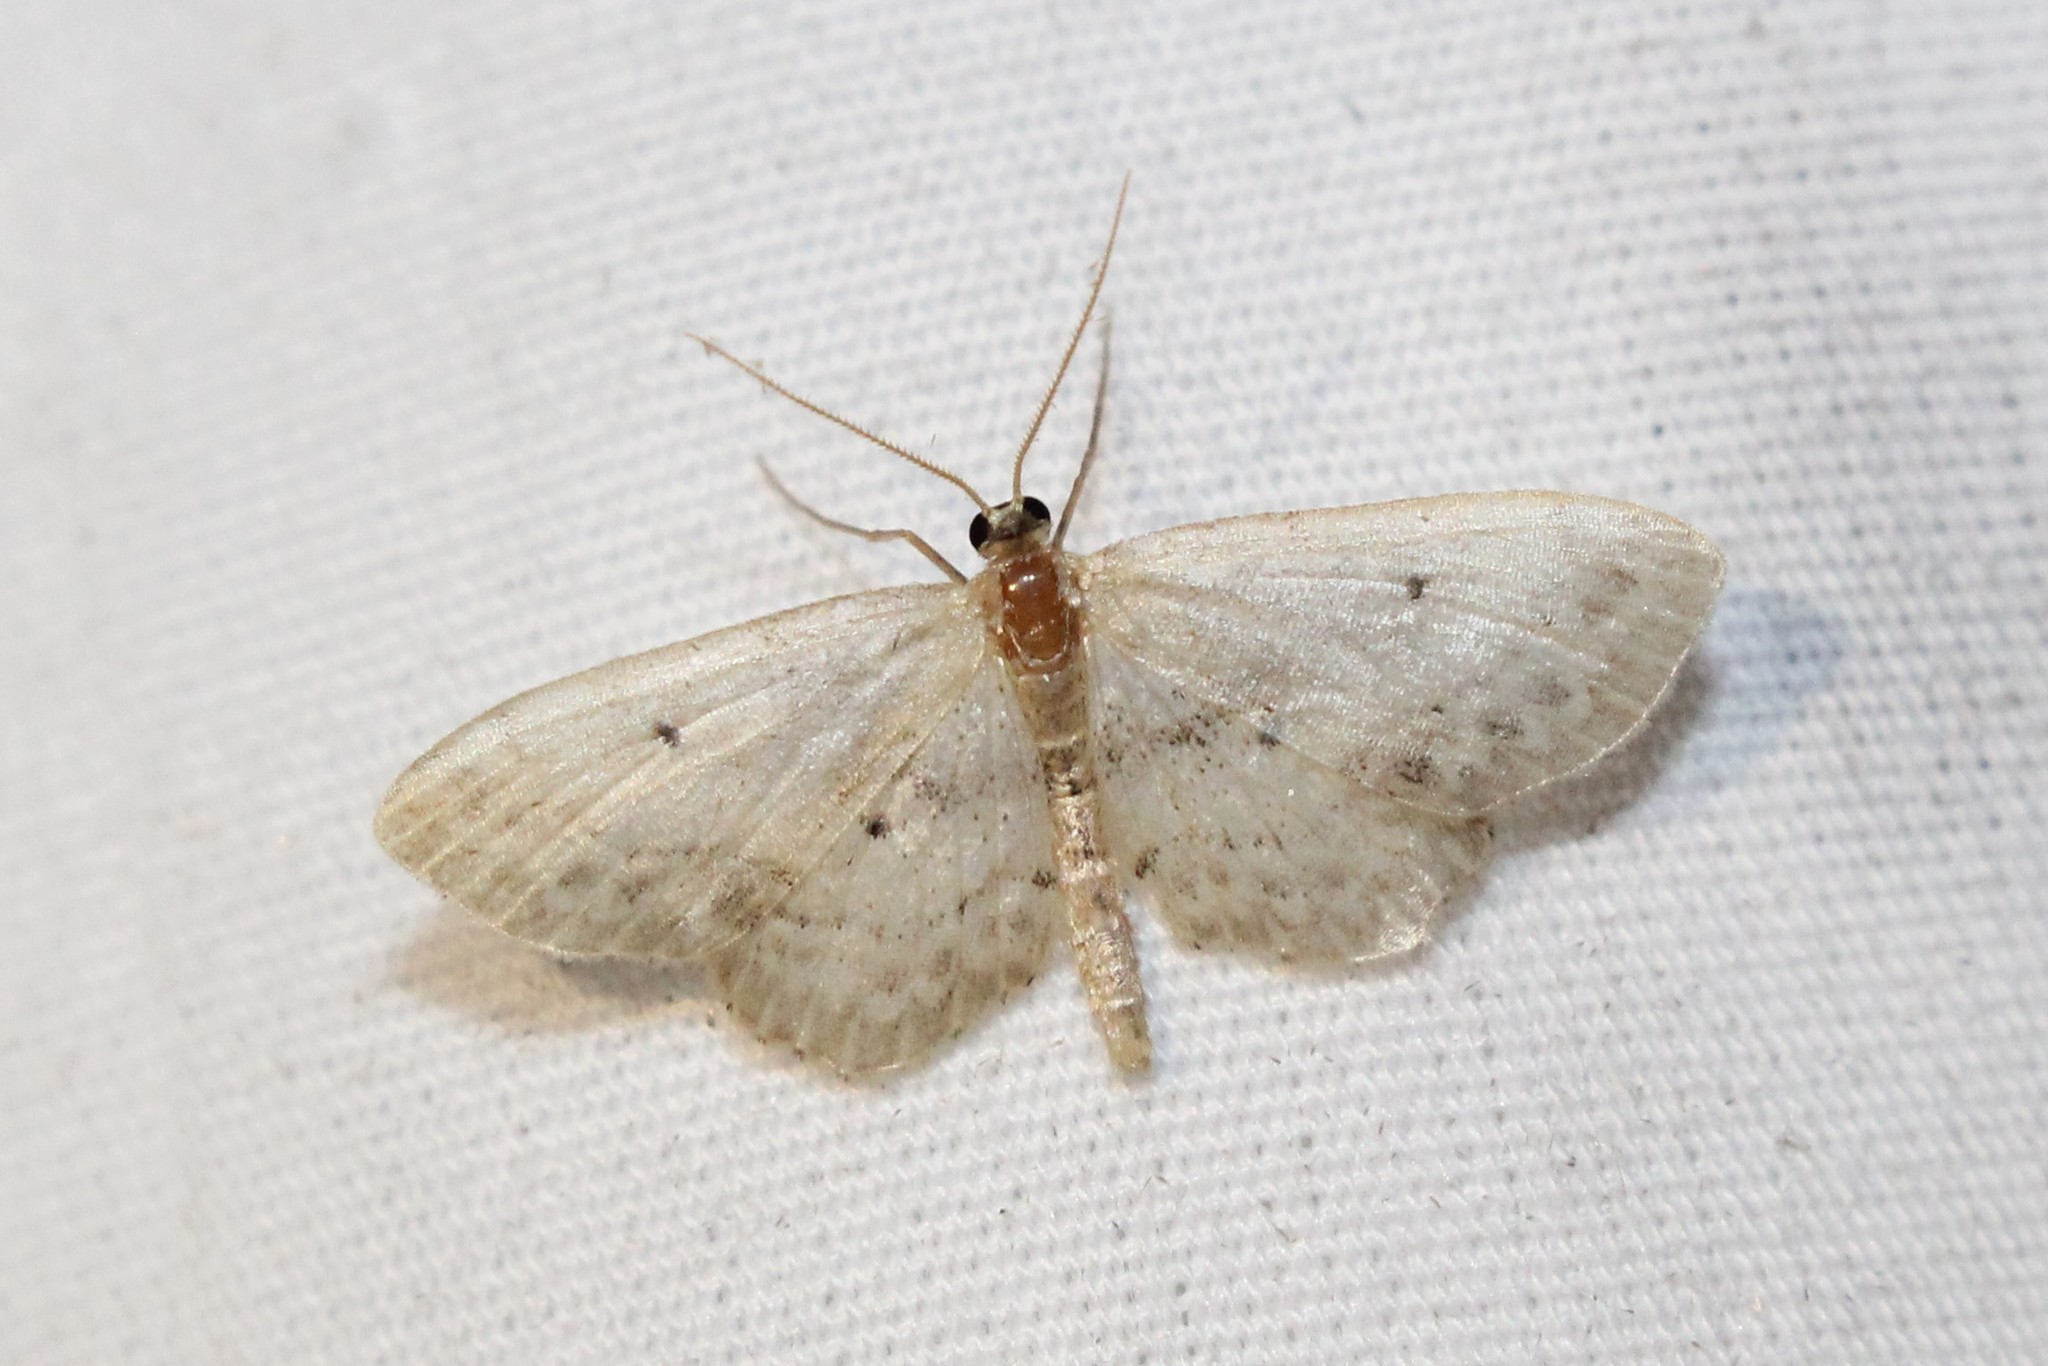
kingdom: Animalia
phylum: Arthropoda
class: Insecta
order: Lepidoptera
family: Geometridae
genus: Idaea
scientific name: Idaea dimidiata
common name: Single-dotted wave
